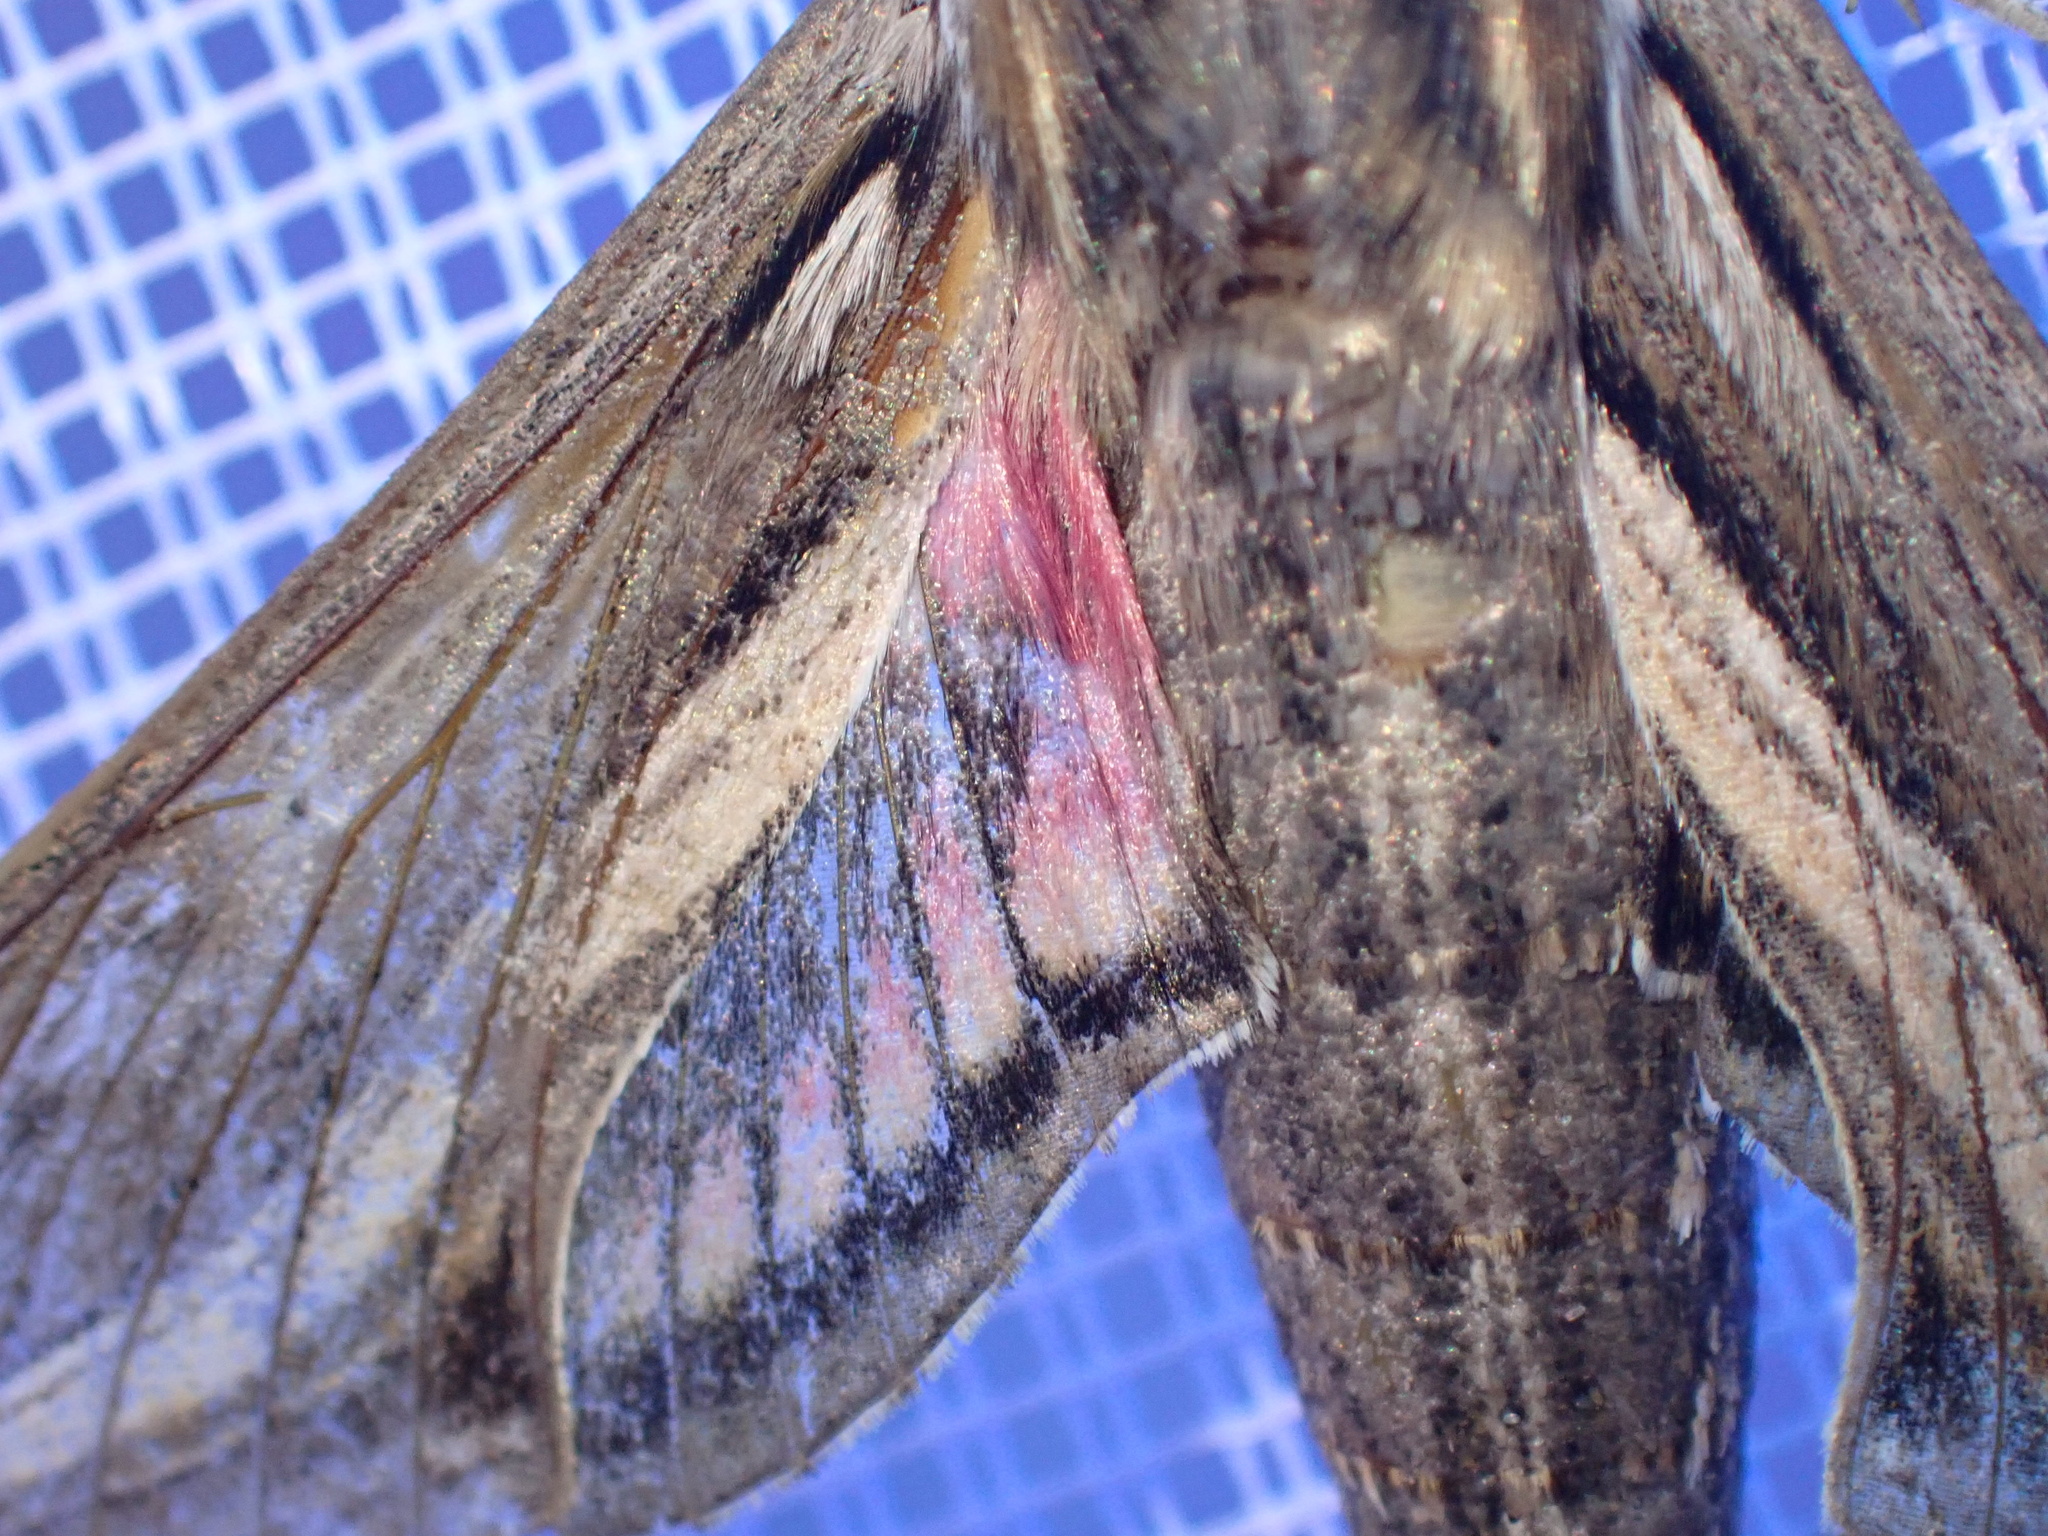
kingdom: Animalia
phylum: Arthropoda
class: Insecta
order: Lepidoptera
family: Sphingidae
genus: Hippotion
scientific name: Hippotion celerio
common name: Silver-striped hawk-moth
